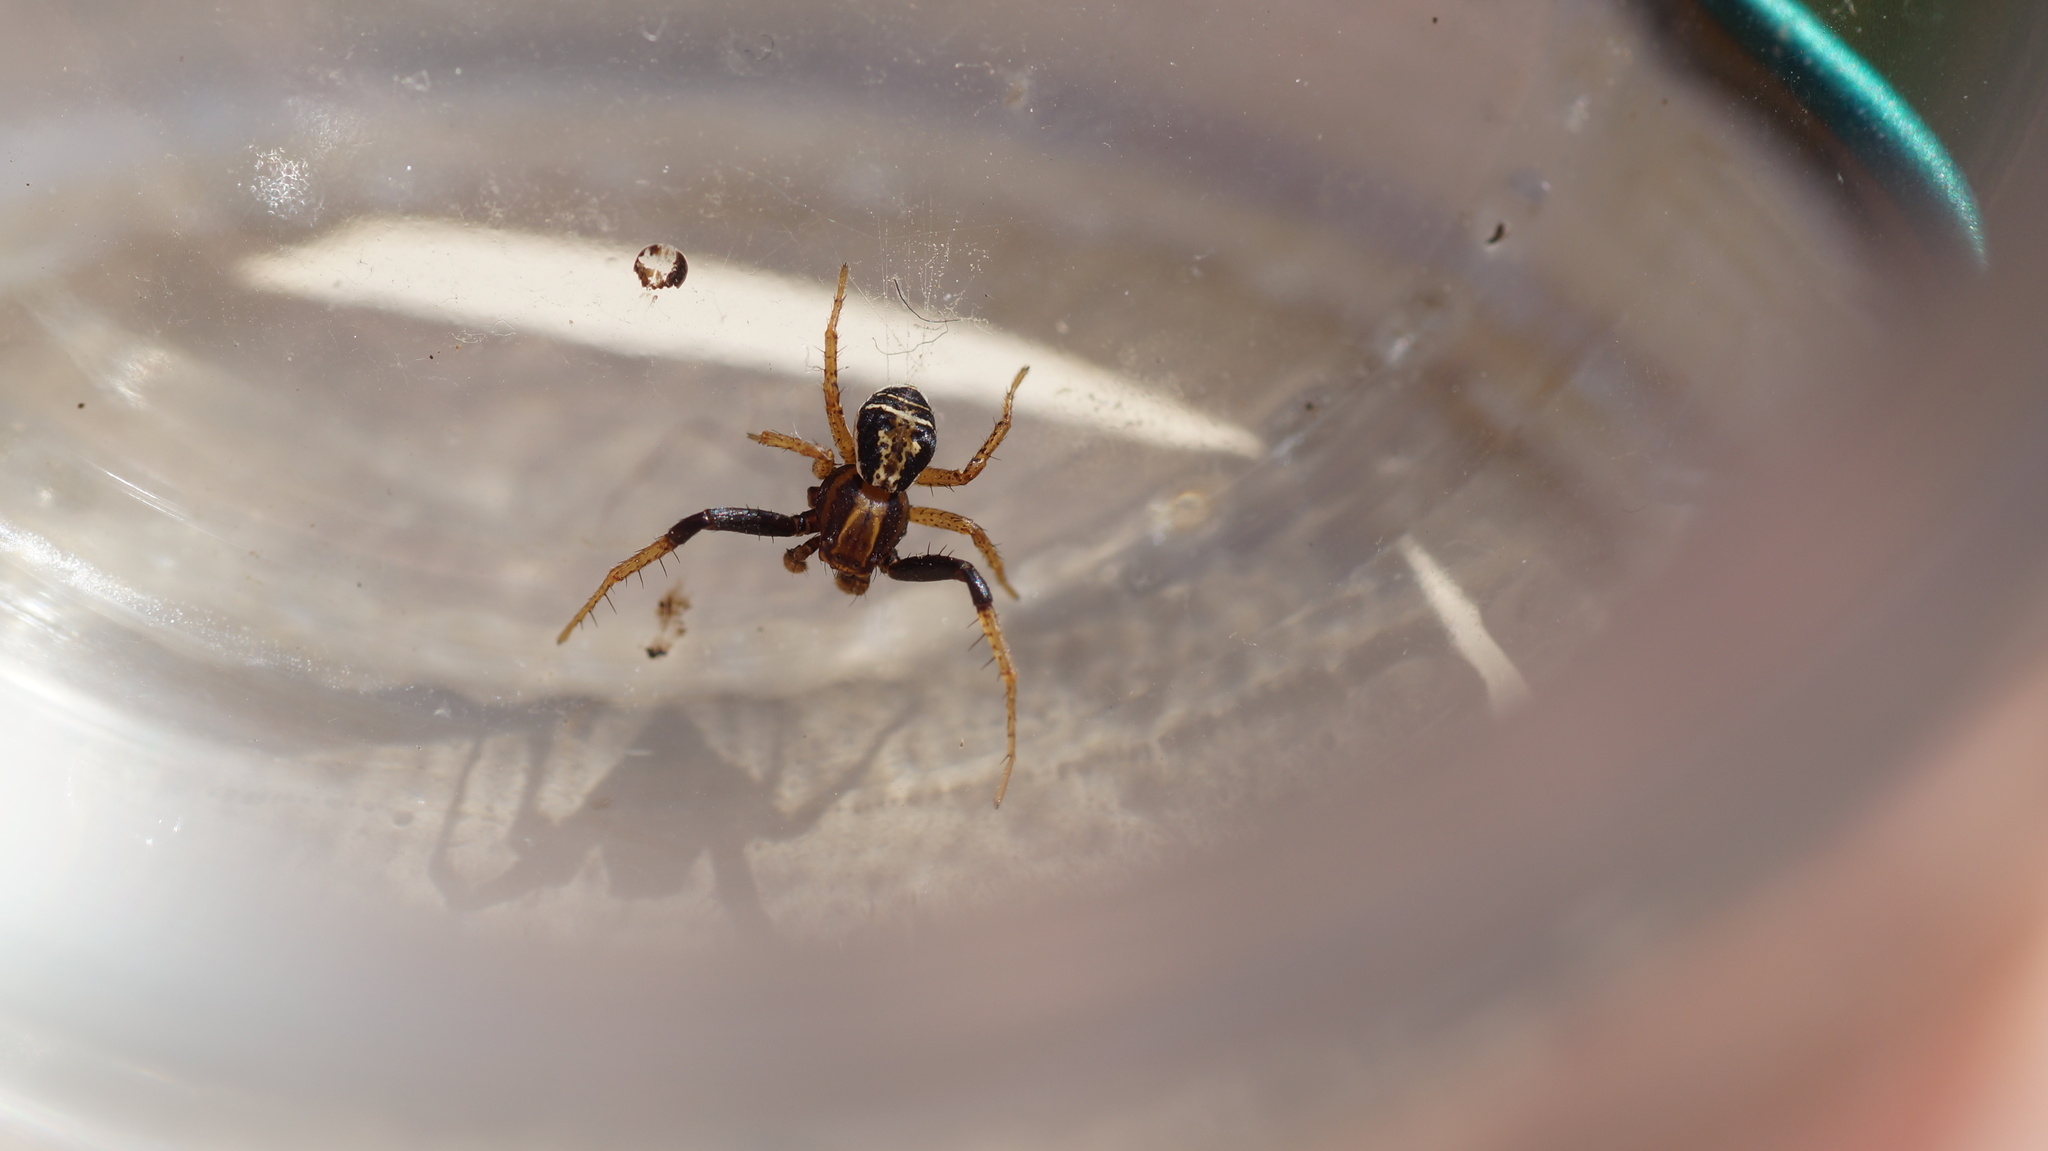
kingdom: Animalia
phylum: Arthropoda
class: Arachnida
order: Araneae
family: Thomisidae
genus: Xysticus
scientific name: Xysticus ulmi
